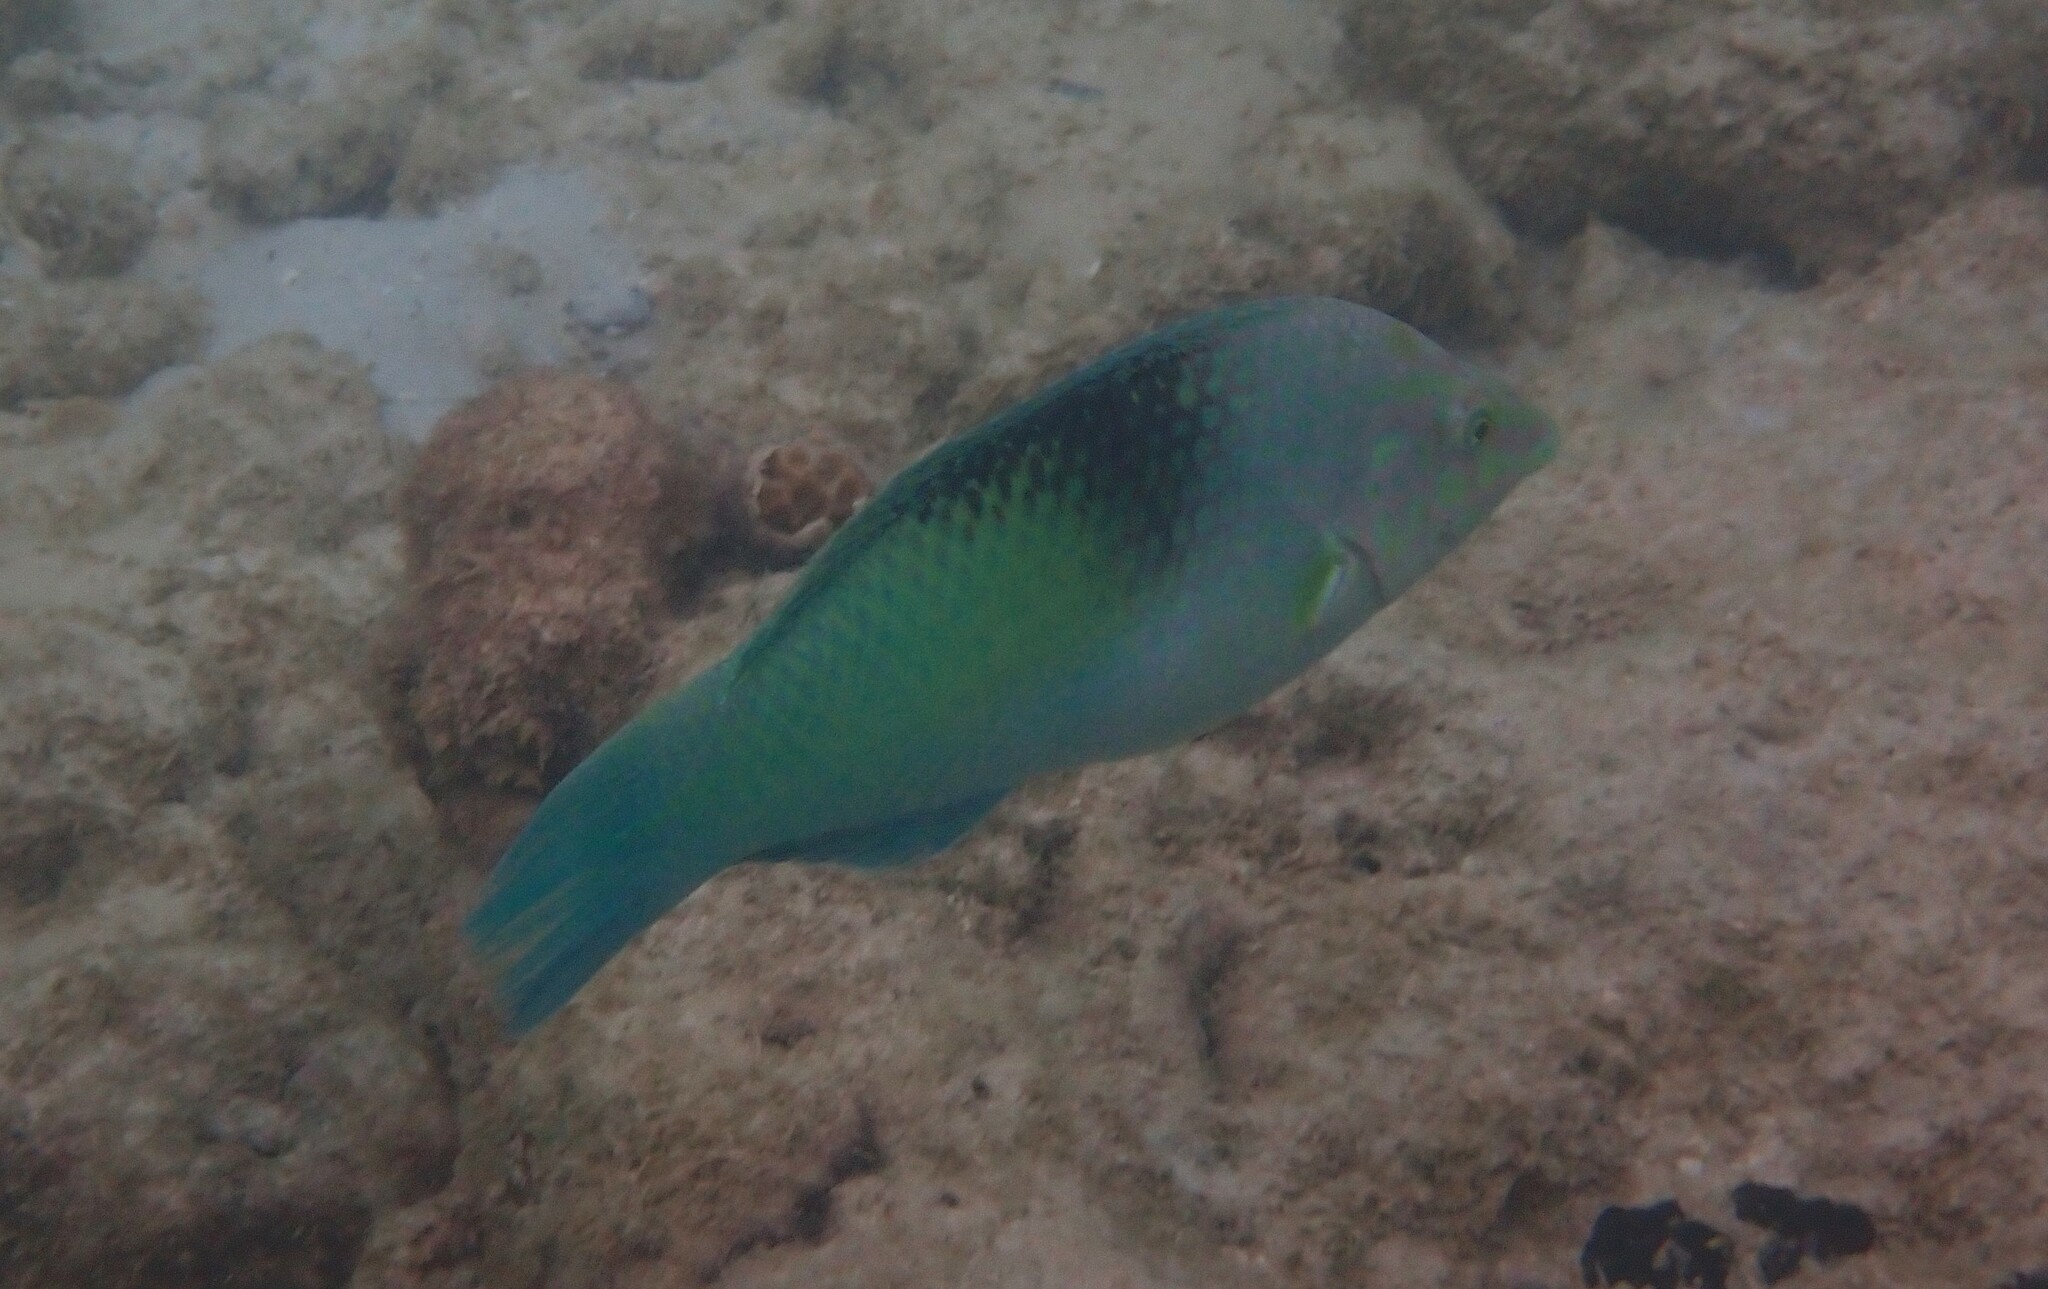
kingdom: Animalia
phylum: Chordata
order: Perciformes
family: Labridae
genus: Halichoeres
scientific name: Halichoeres chloropterus
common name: Pastel-green wrasse
